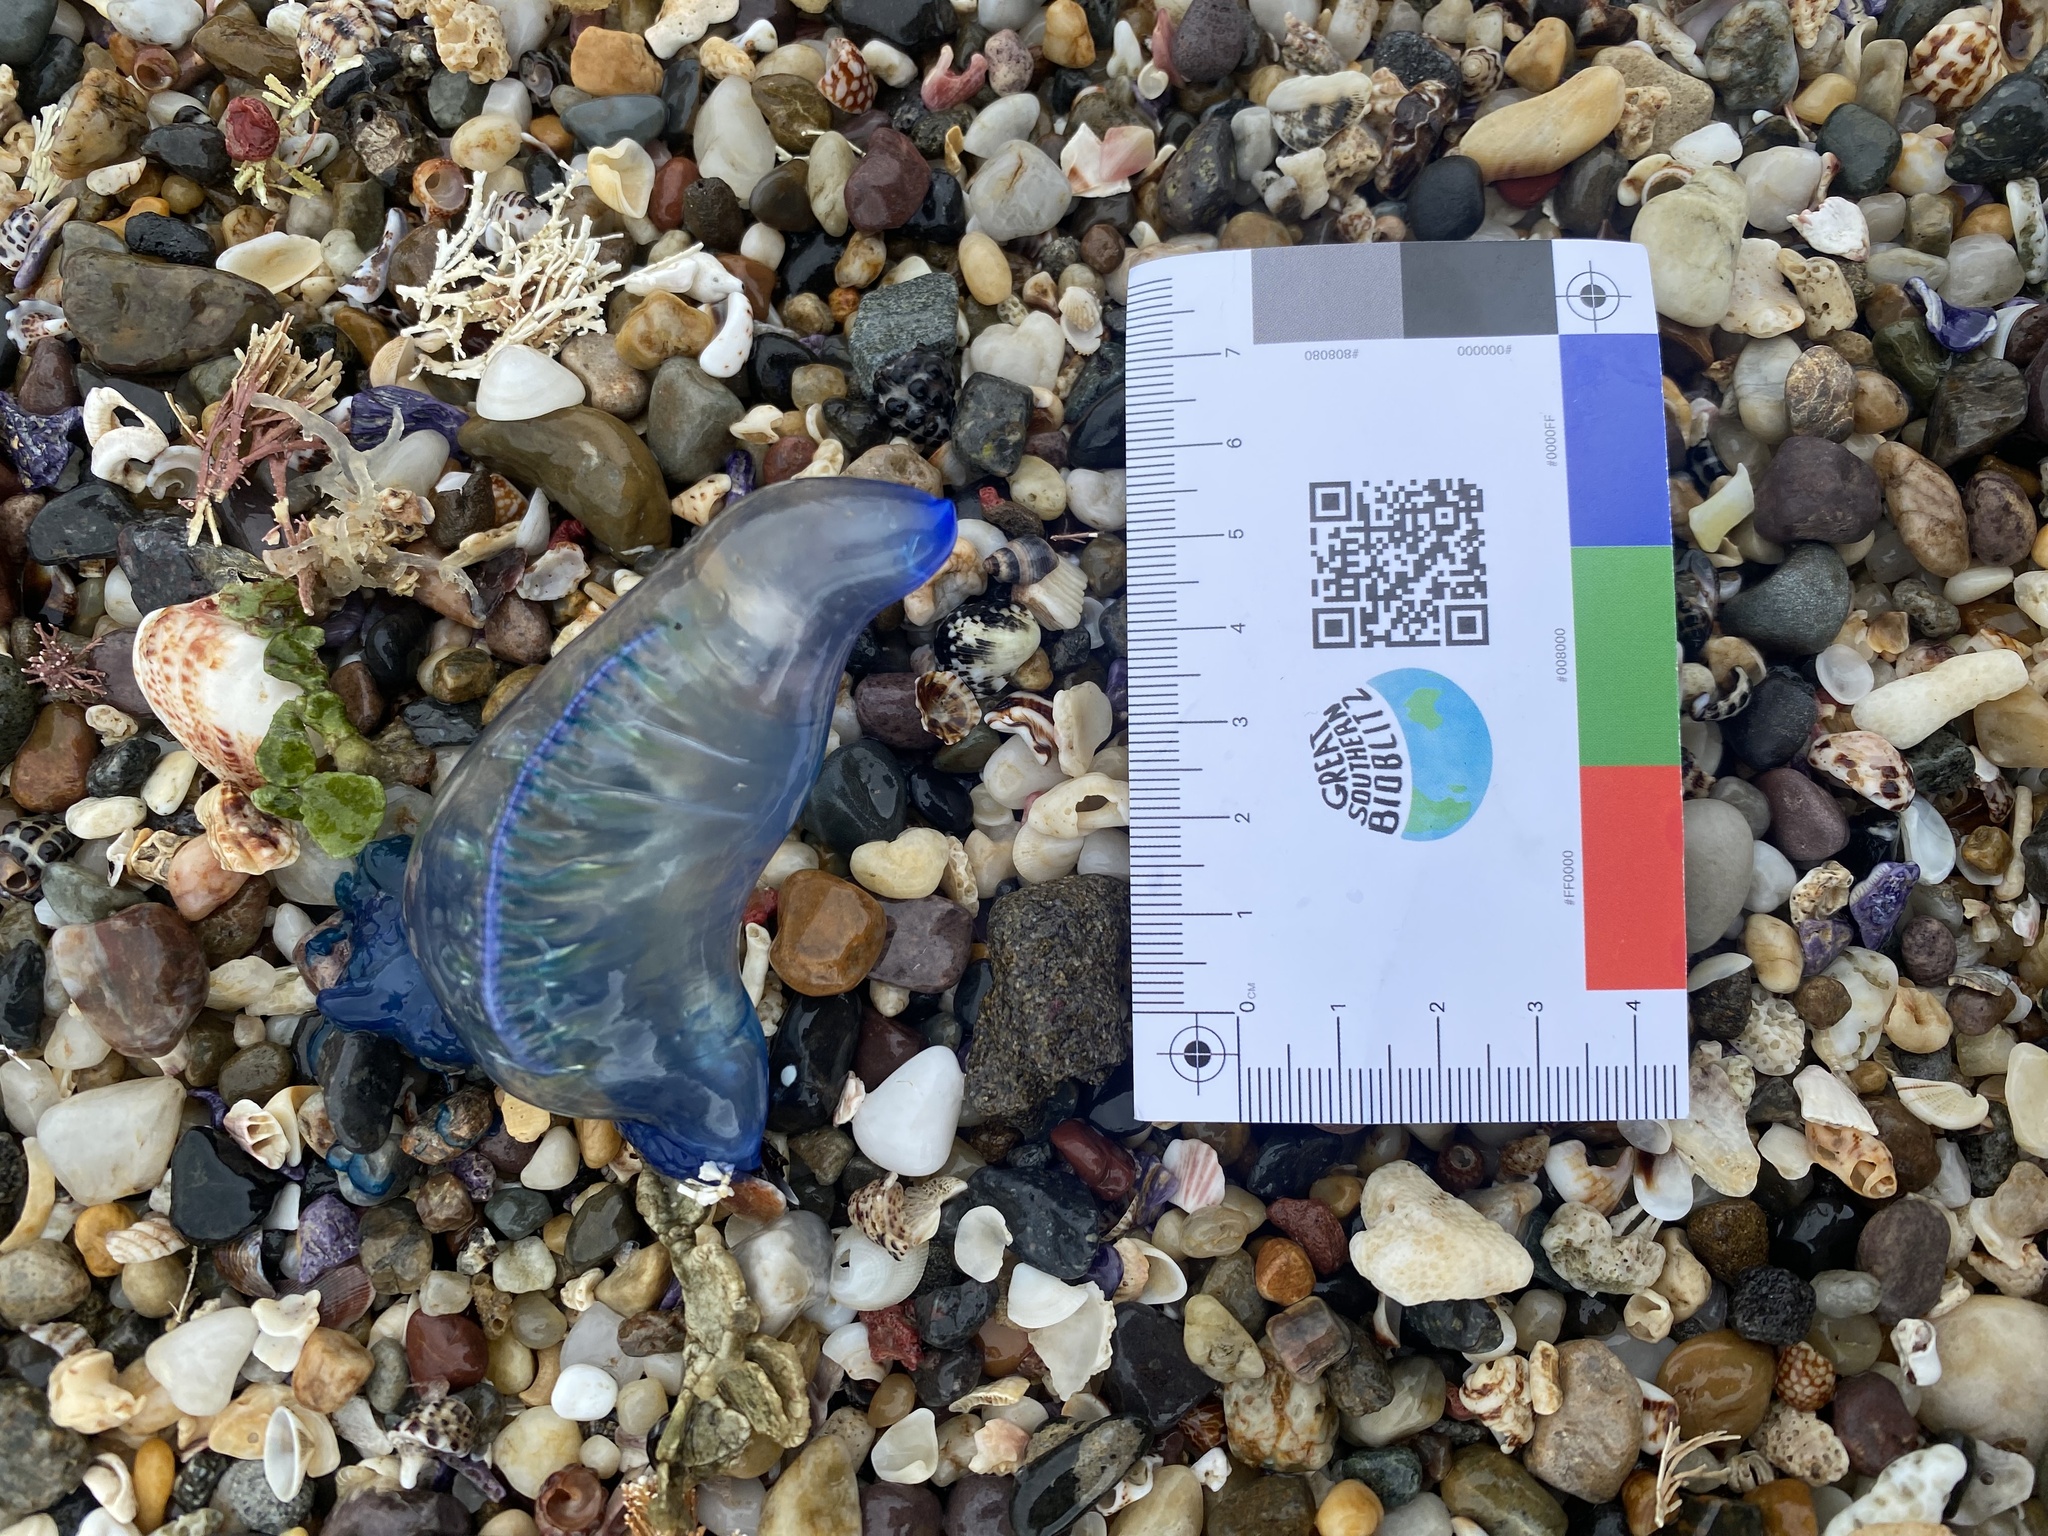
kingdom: Animalia
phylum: Cnidaria
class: Hydrozoa
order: Siphonophorae
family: Physaliidae
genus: Physalia
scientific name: Physalia physalis
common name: Portuguese man-of-war
